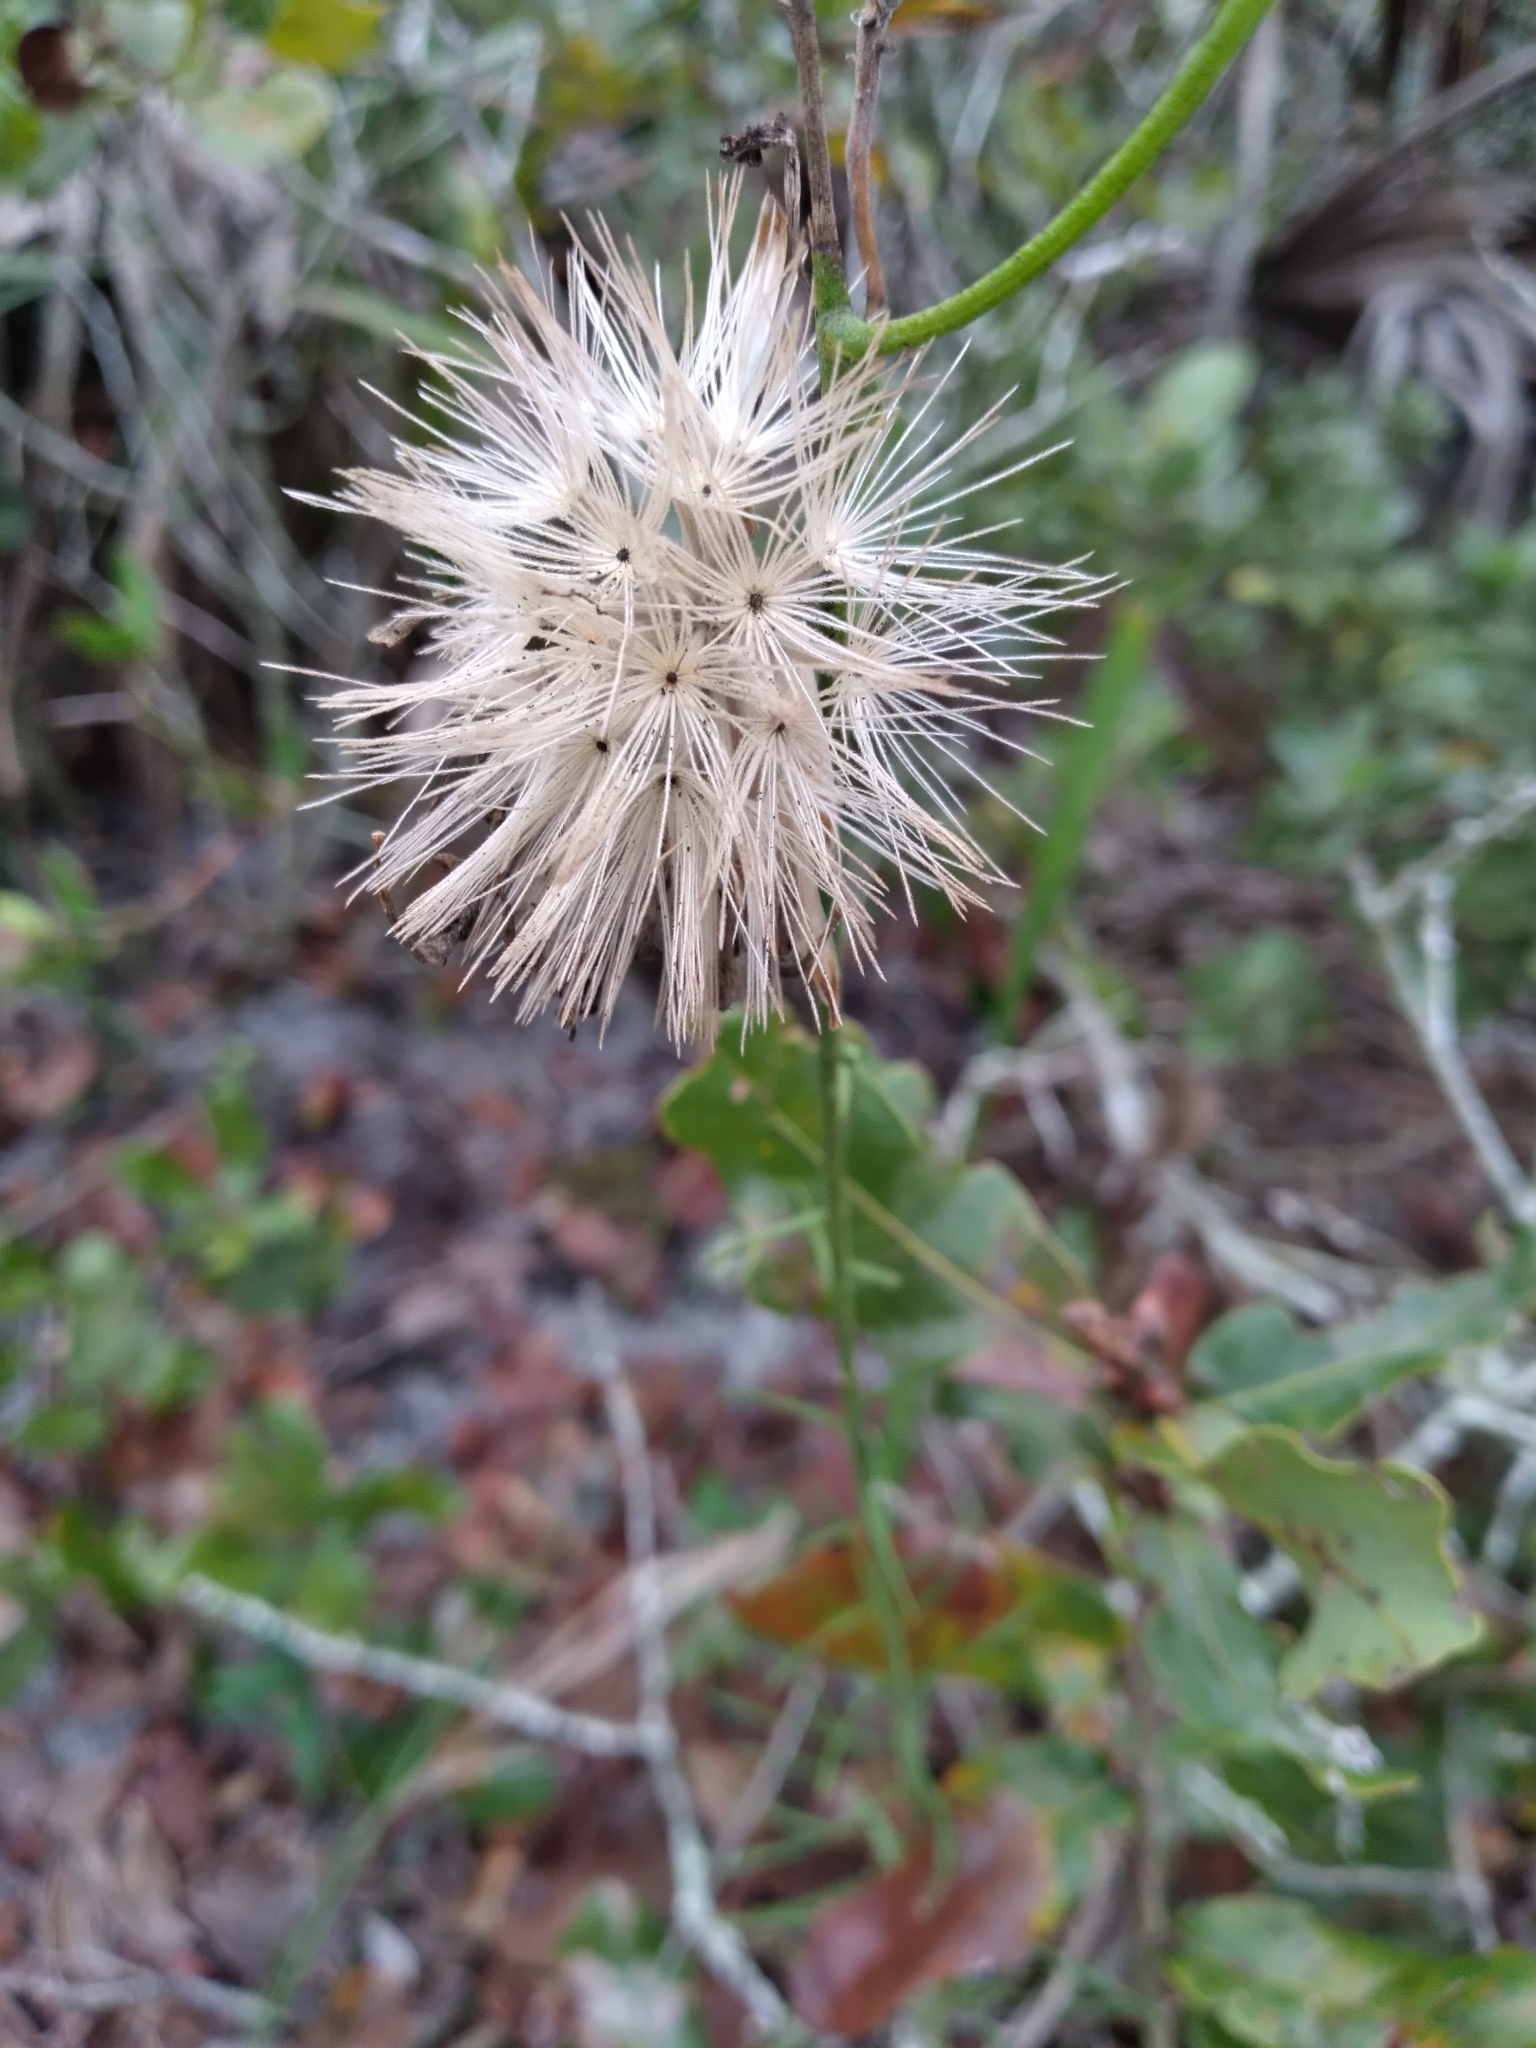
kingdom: Plantae
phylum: Tracheophyta
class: Magnoliopsida
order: Asterales
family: Asteraceae
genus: Liatris
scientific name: Liatris ohlingerae
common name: Scrub blazingstar
